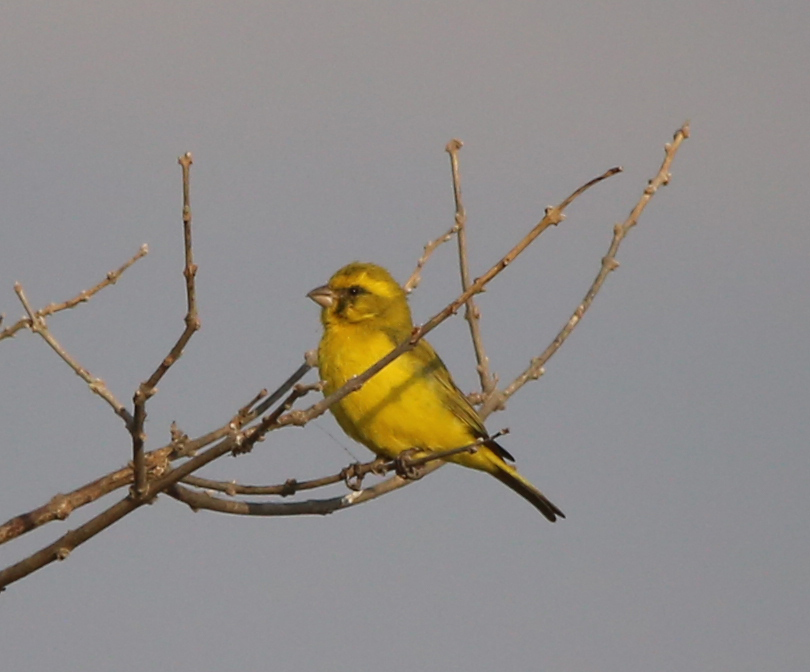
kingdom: Animalia
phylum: Chordata
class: Aves
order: Passeriformes
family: Fringillidae
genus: Crithagra
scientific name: Crithagra mozambica
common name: Yellow-fronted canary
